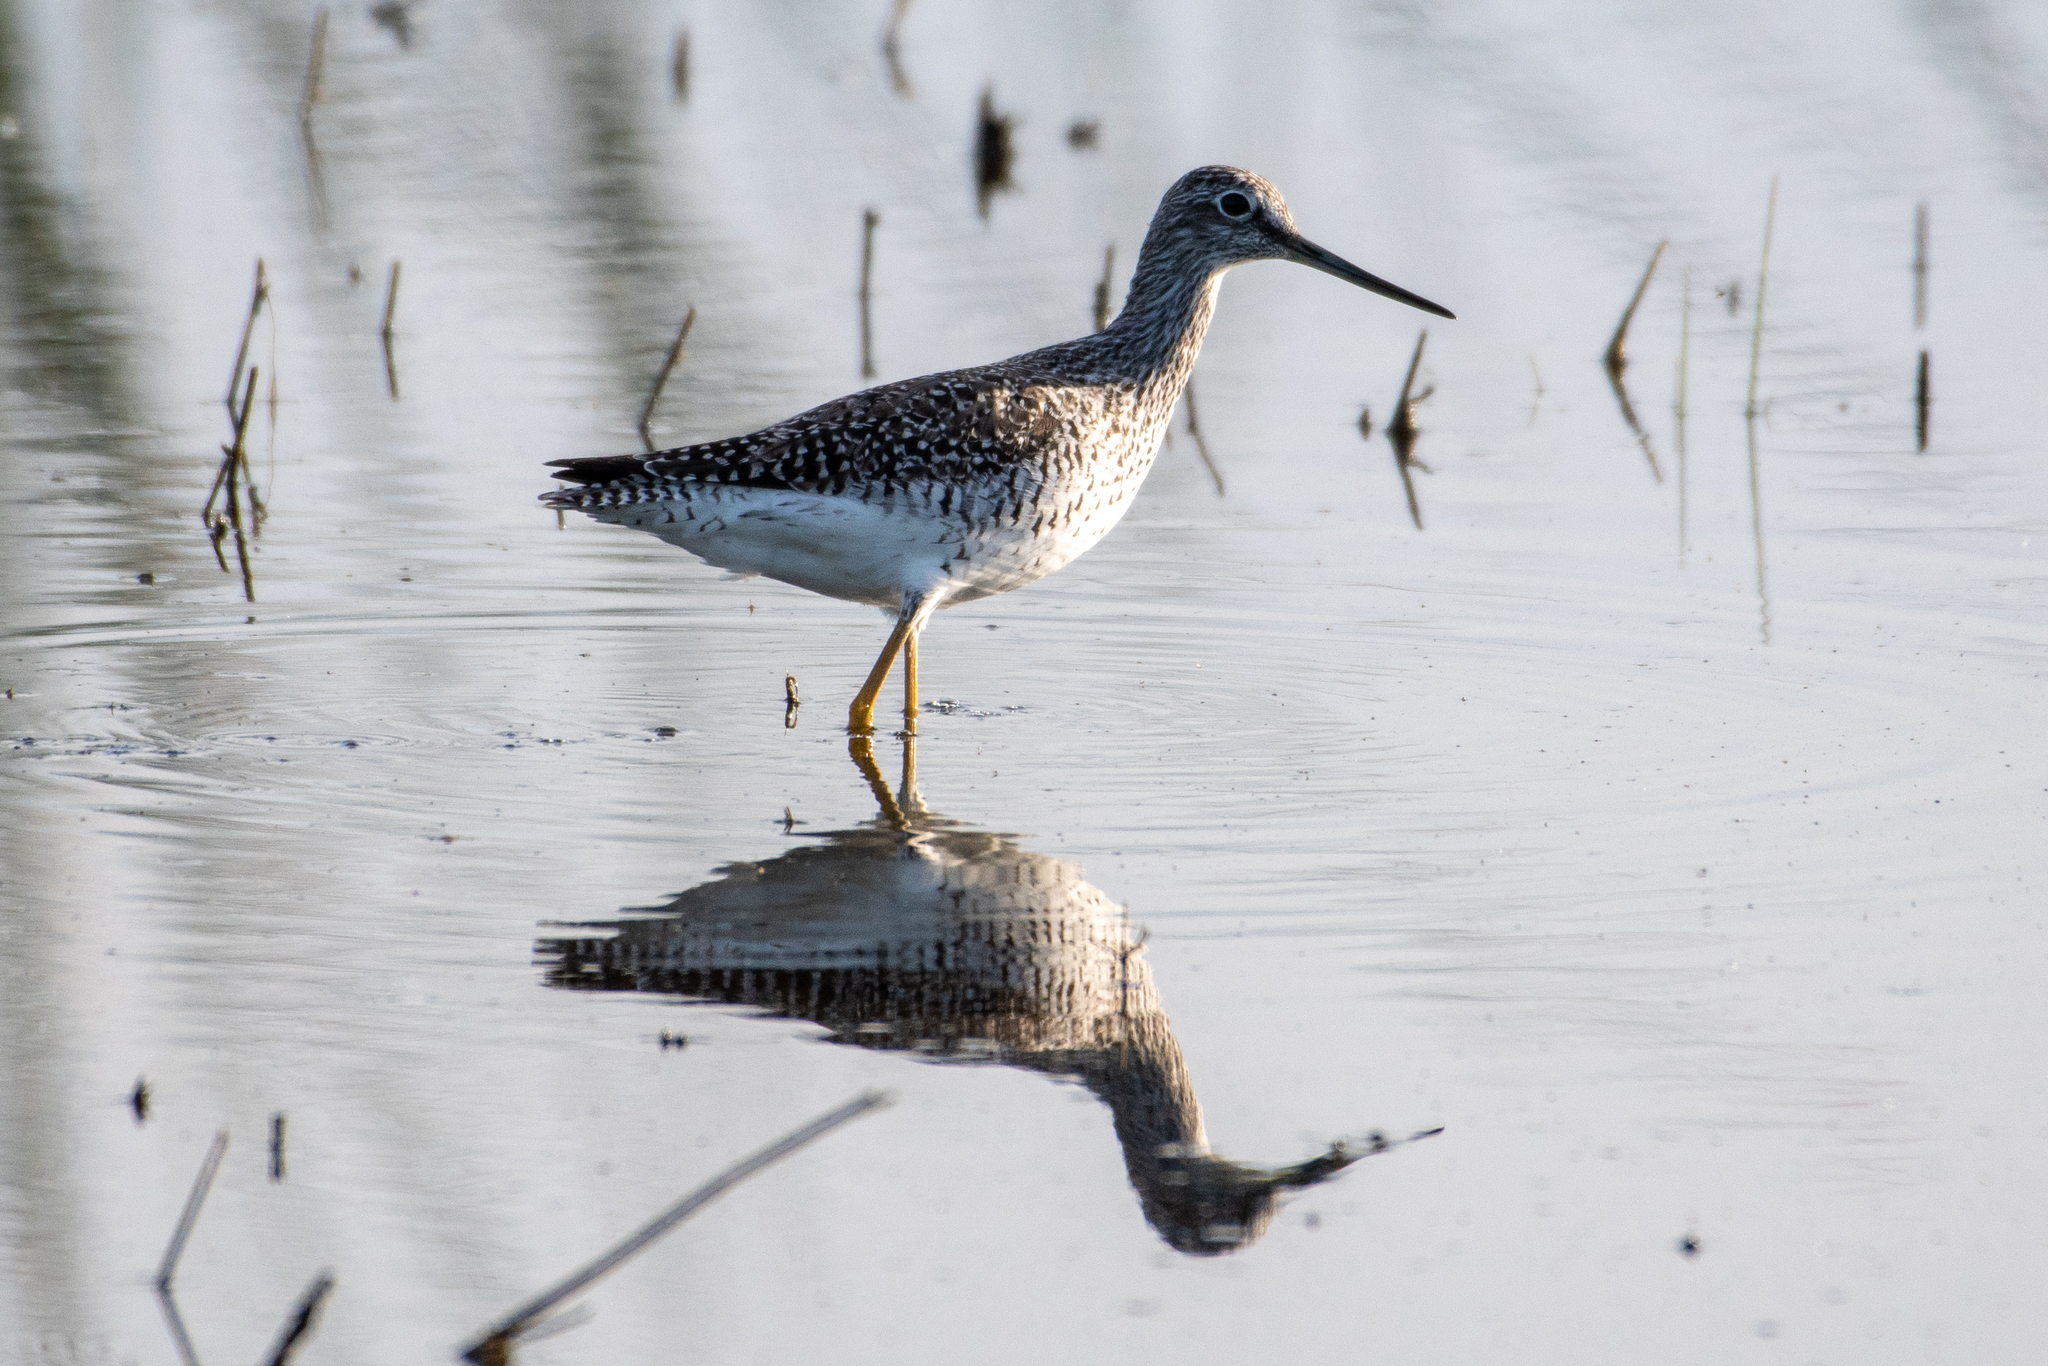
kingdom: Animalia
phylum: Chordata
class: Aves
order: Charadriiformes
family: Scolopacidae
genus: Tringa
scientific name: Tringa melanoleuca
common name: Greater yellowlegs
